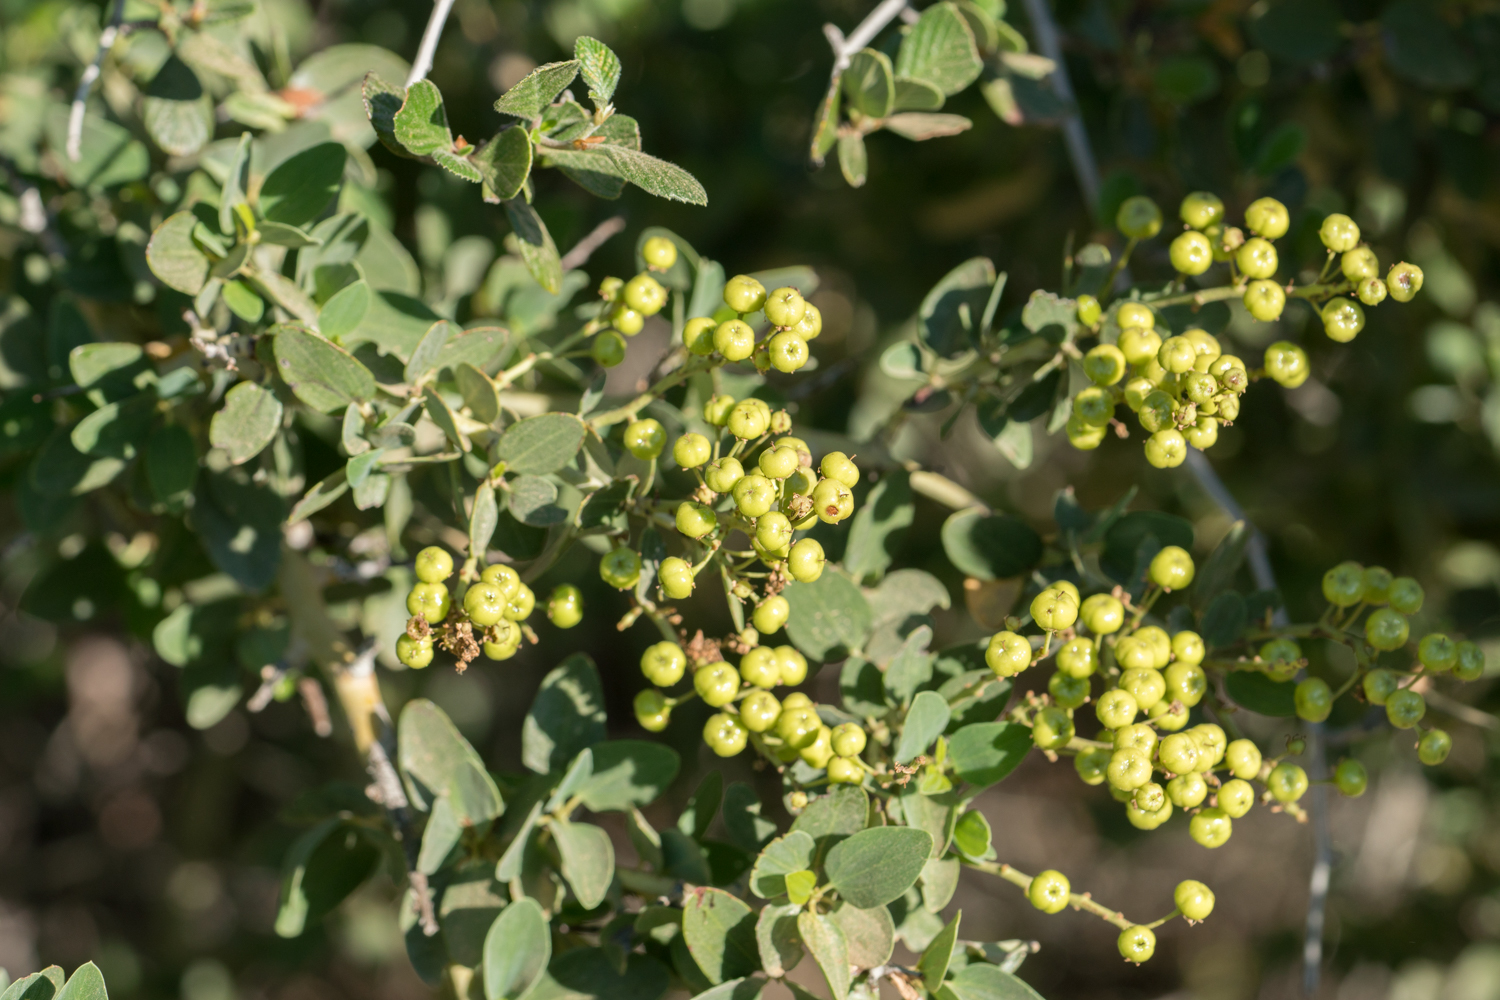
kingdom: Plantae
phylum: Tracheophyta
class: Magnoliopsida
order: Rosales
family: Rhamnaceae
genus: Ceanothus
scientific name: Ceanothus leucodermis
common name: Chaparral whitethorn
